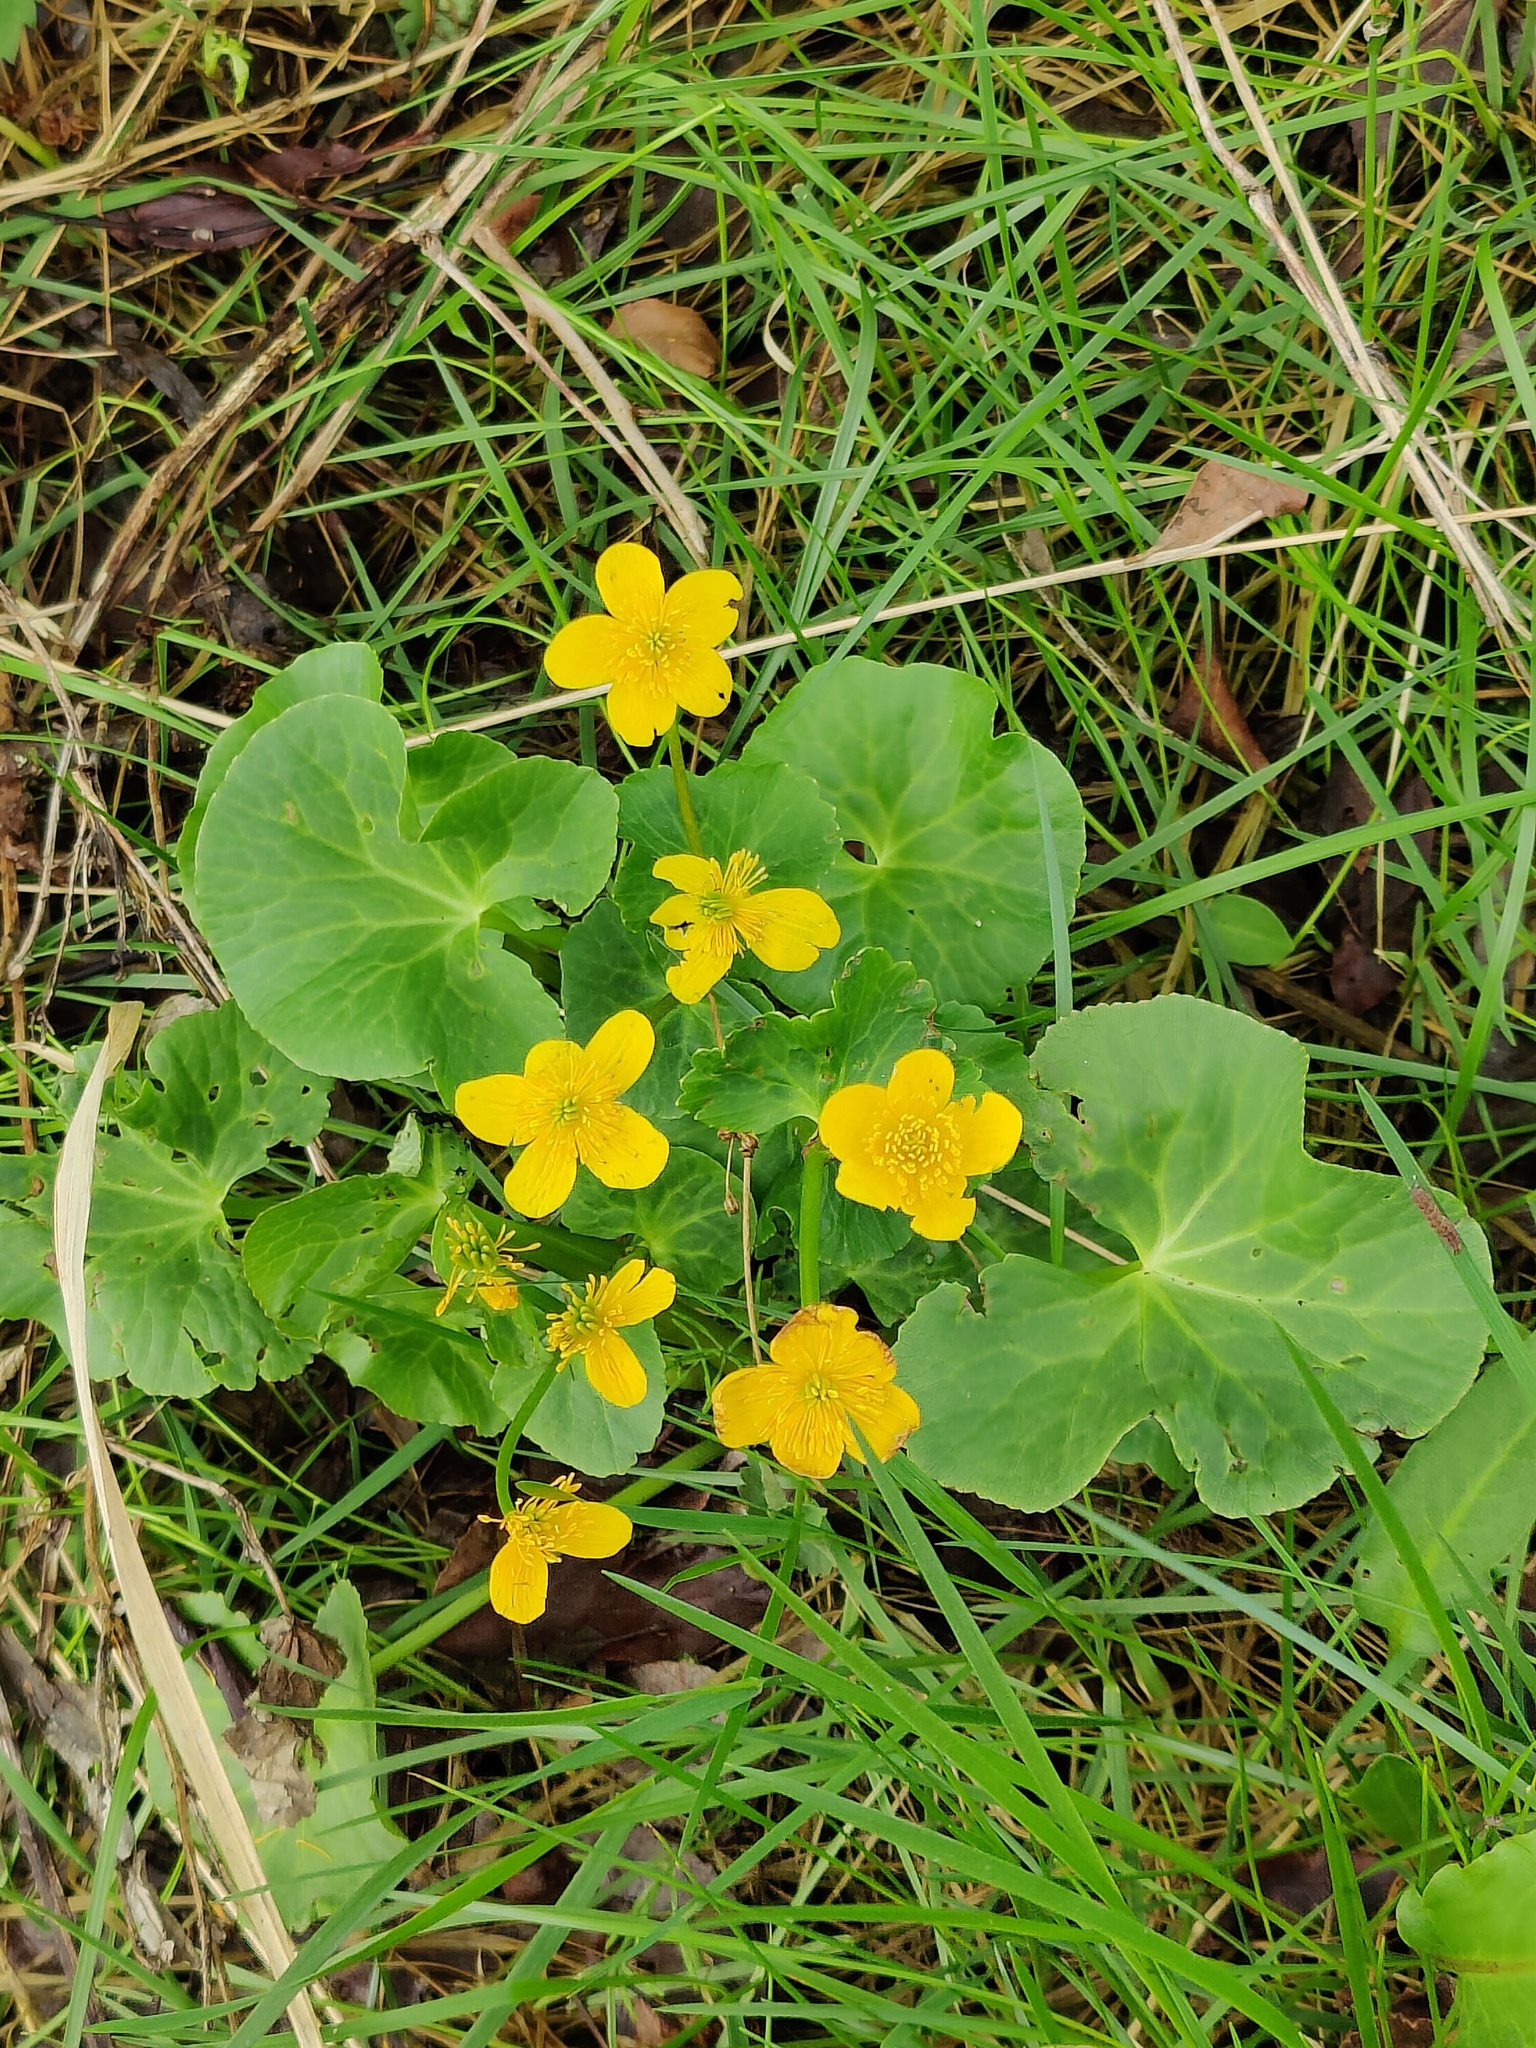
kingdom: Plantae
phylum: Tracheophyta
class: Magnoliopsida
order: Ranunculales
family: Ranunculaceae
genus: Caltha
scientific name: Caltha palustris
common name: Marsh marigold
